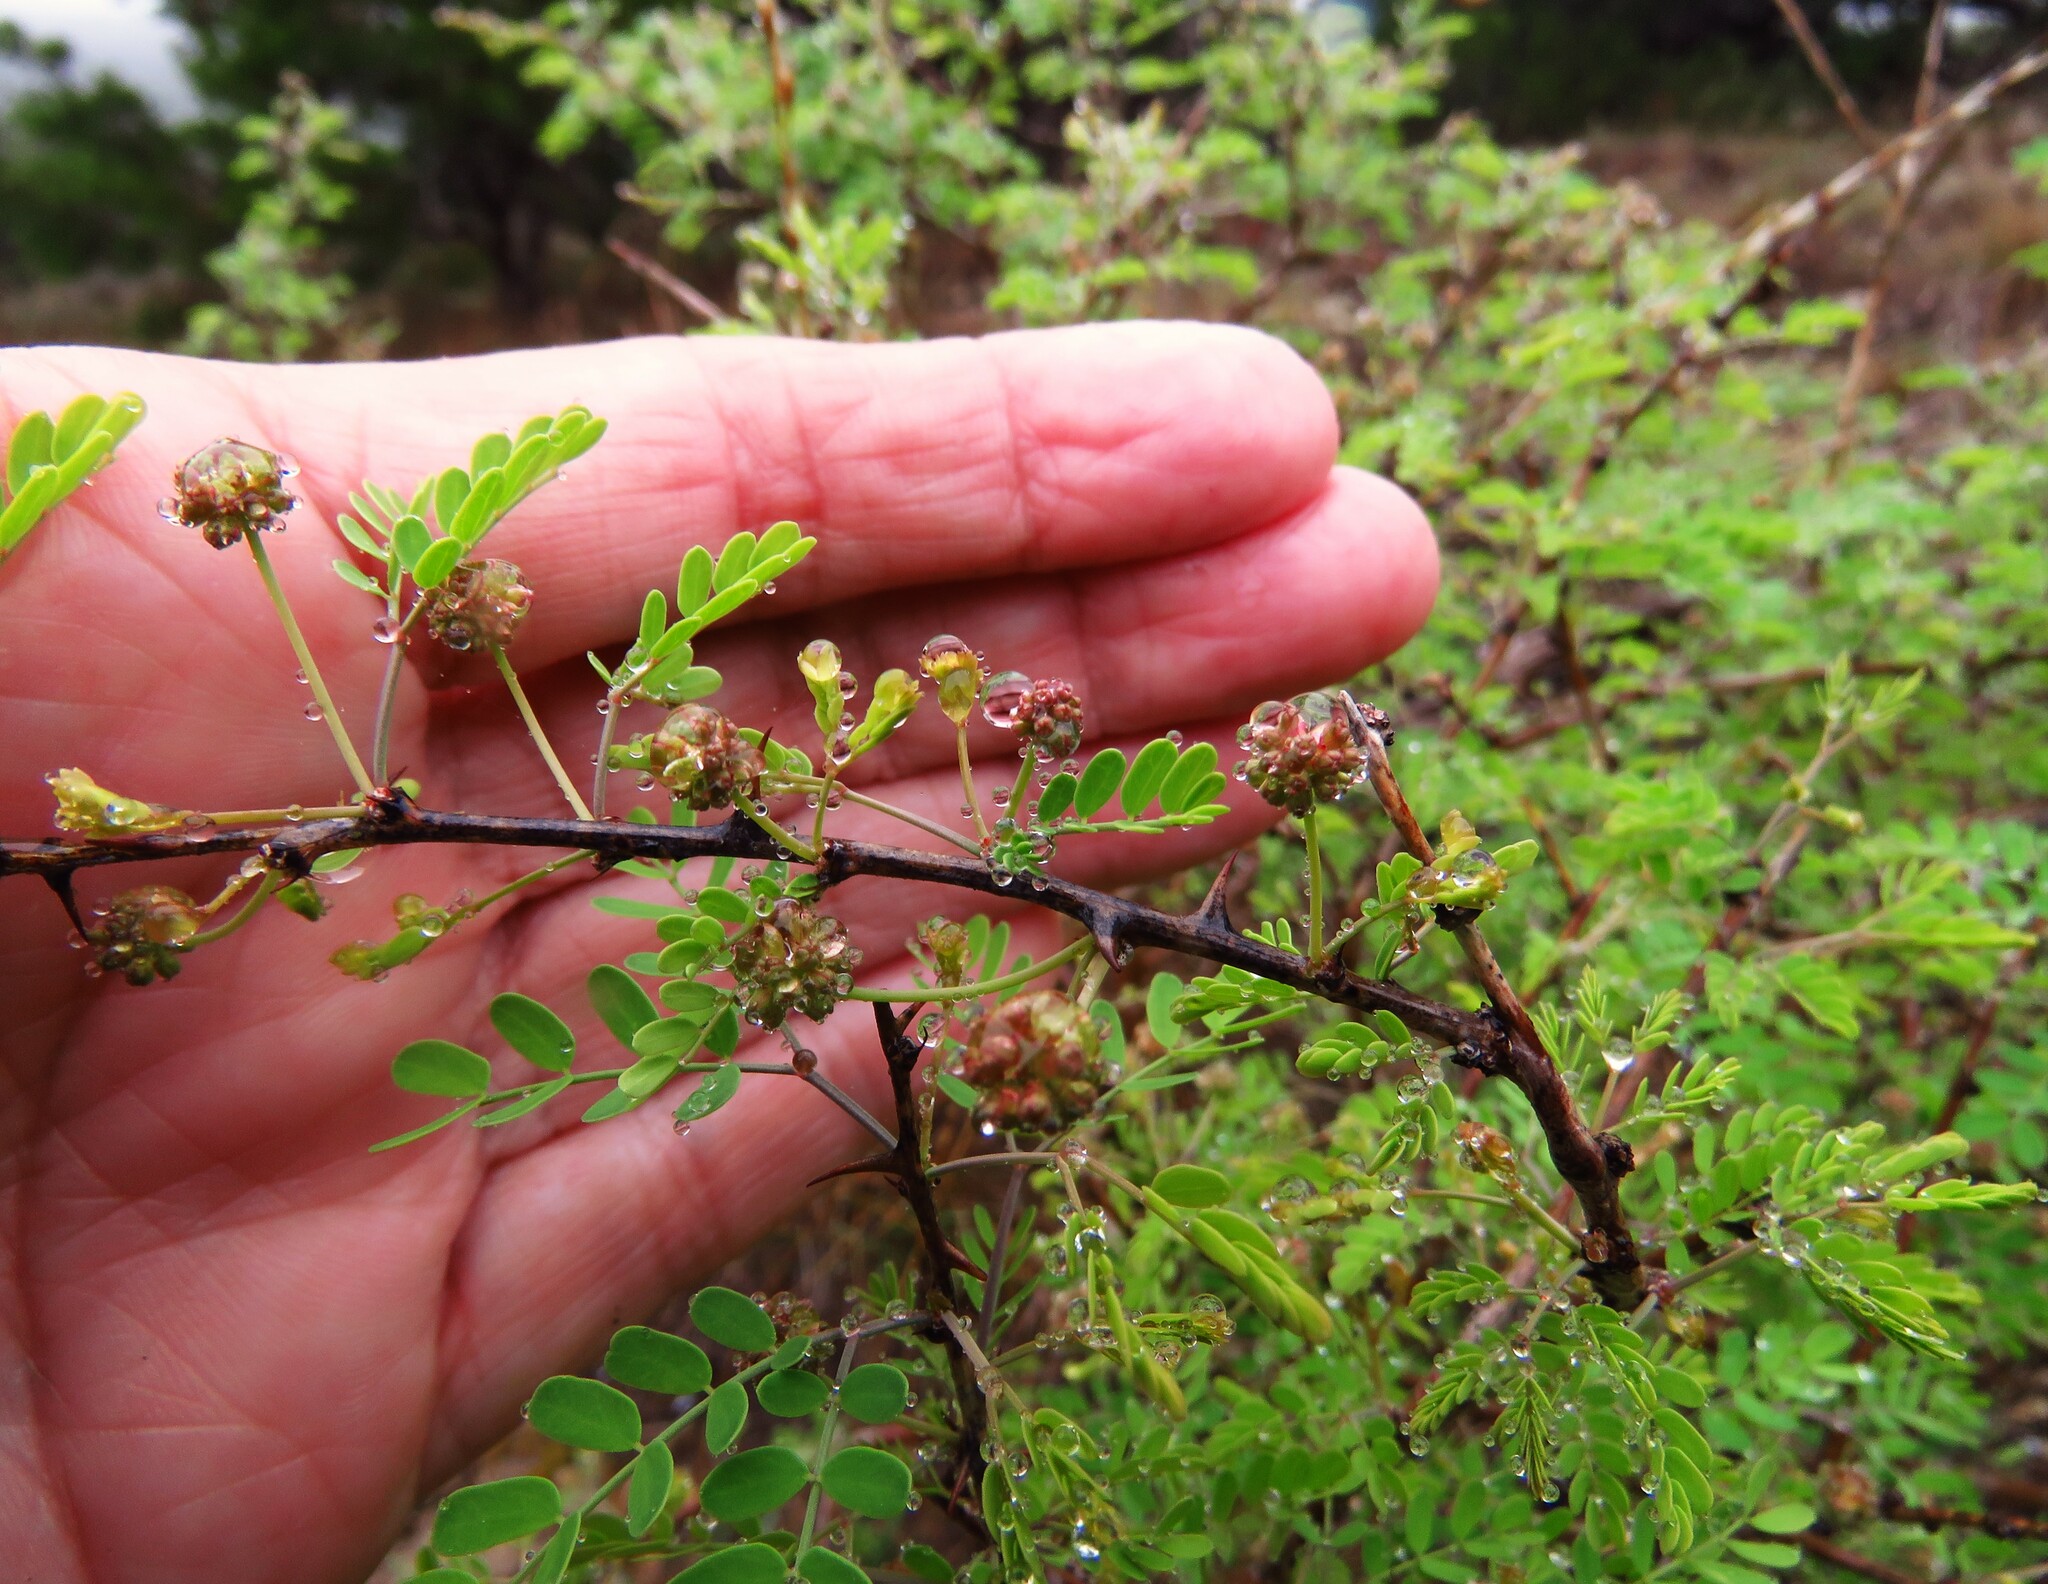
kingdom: Plantae
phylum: Tracheophyta
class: Magnoliopsida
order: Fabales
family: Fabaceae
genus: Mimosa
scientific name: Mimosa borealis
